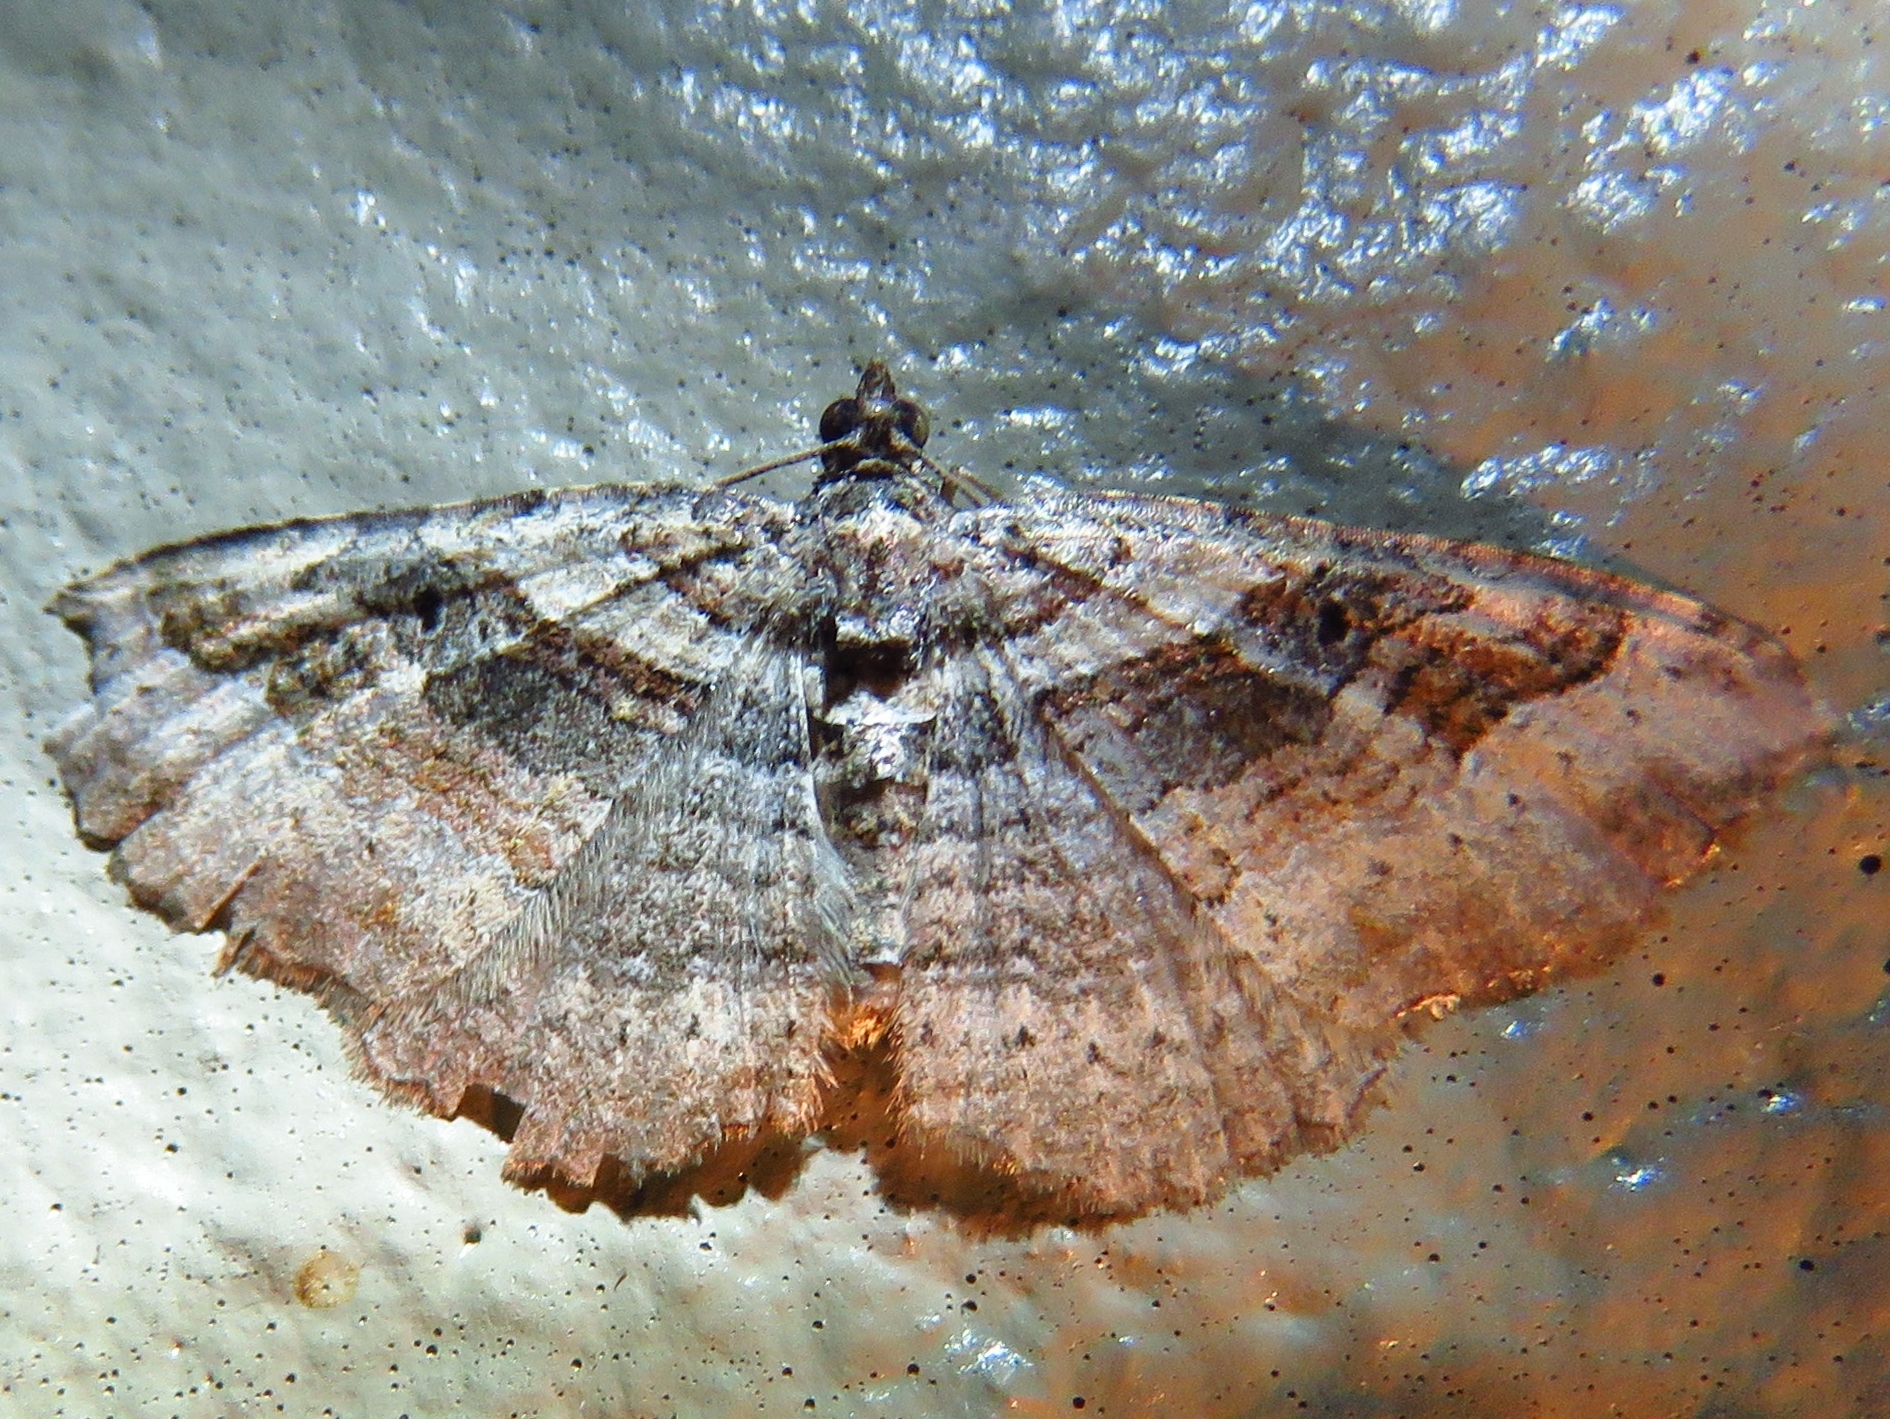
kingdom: Animalia
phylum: Arthropoda
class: Insecta
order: Lepidoptera
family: Geometridae
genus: Costaconvexa
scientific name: Costaconvexa centrostrigaria
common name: Bent-line carpet
